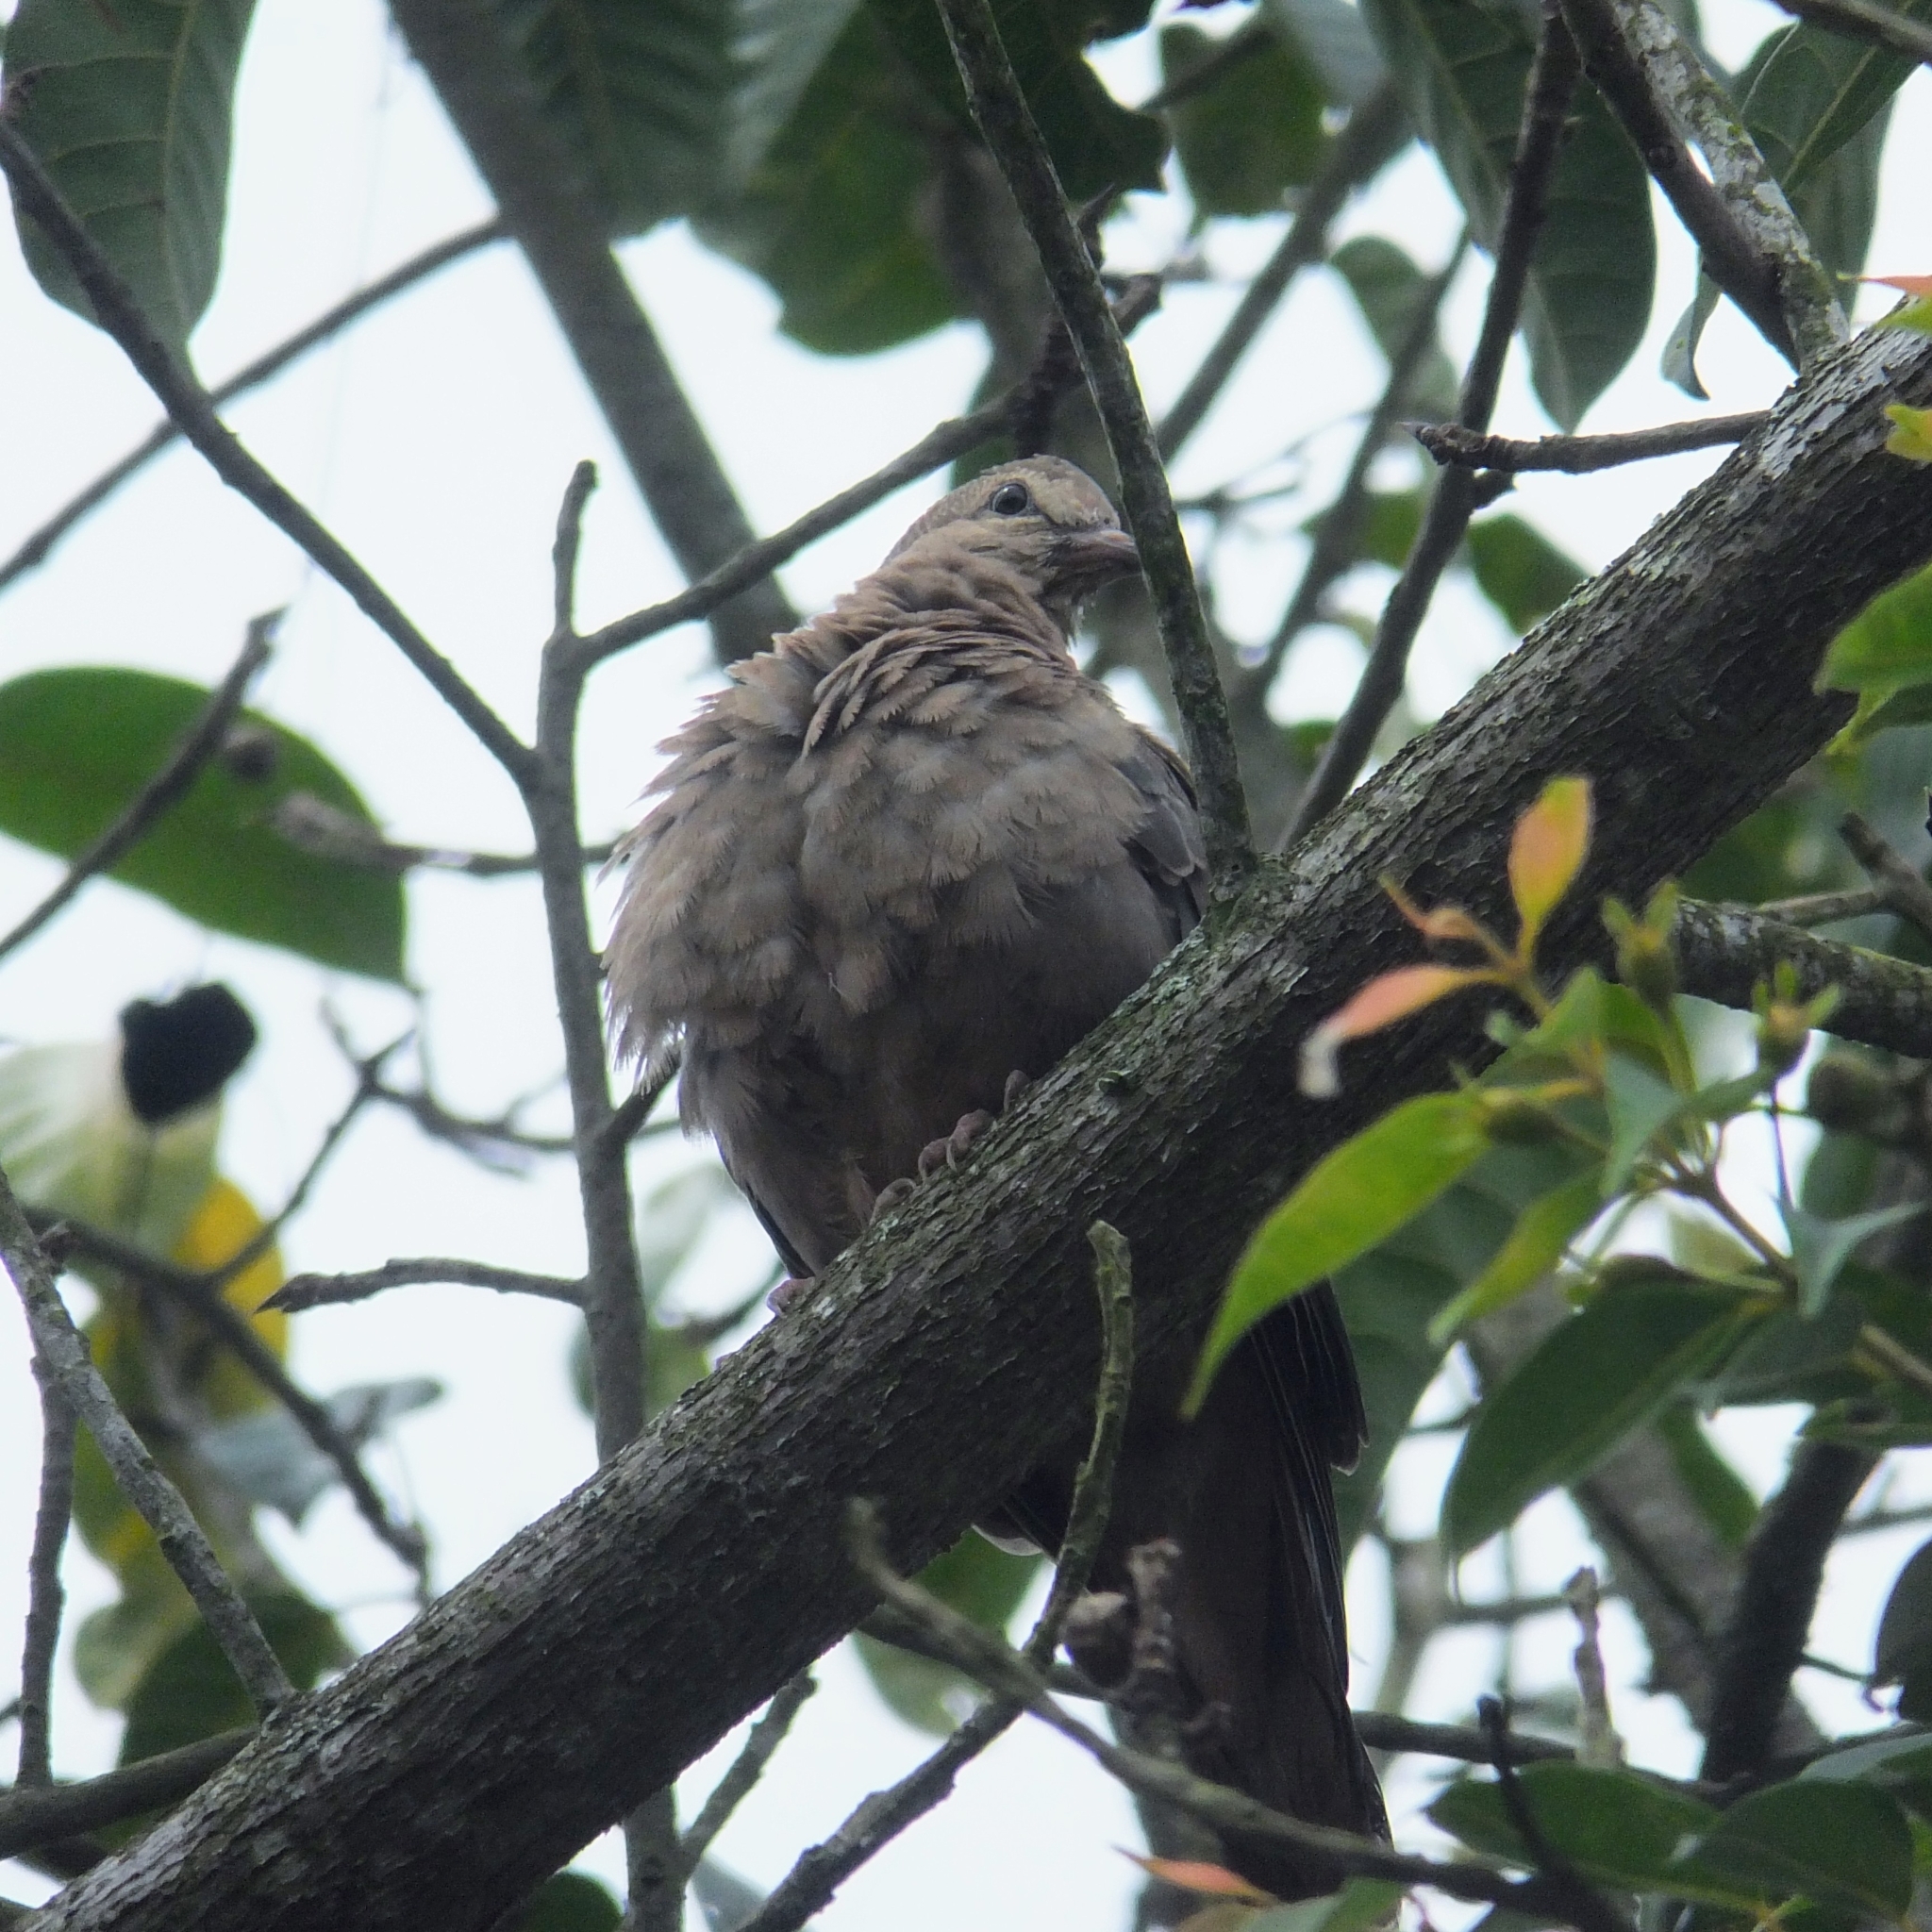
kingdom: Animalia
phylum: Chordata
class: Aves
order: Columbiformes
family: Columbidae
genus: Zenaida
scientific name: Zenaida auriculata
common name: Eared dove
